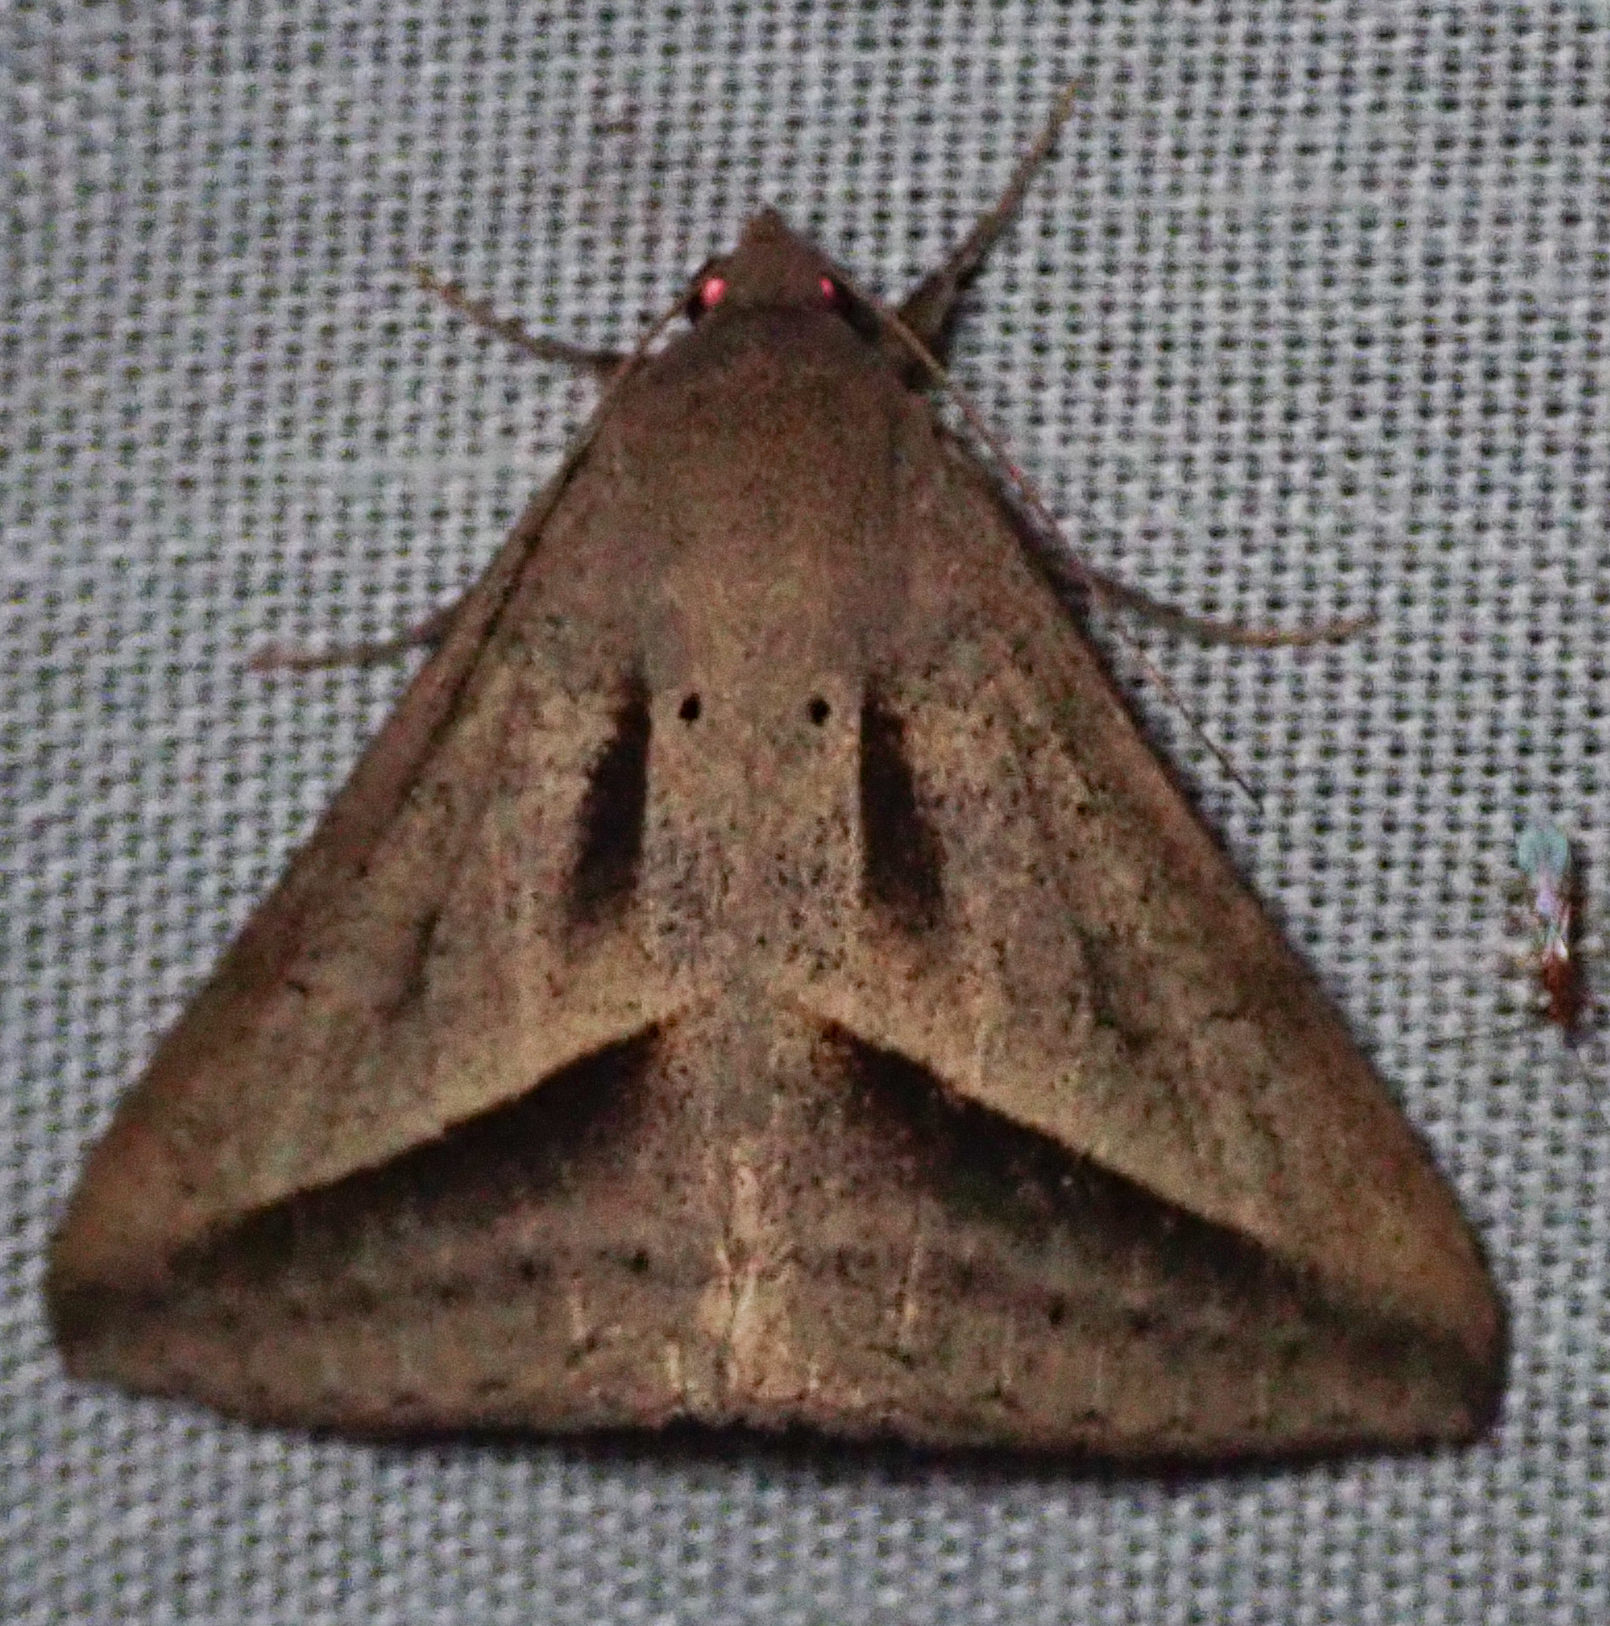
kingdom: Animalia
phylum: Arthropoda
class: Insecta
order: Lepidoptera
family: Erebidae
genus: Mocis
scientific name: Mocis proverai
